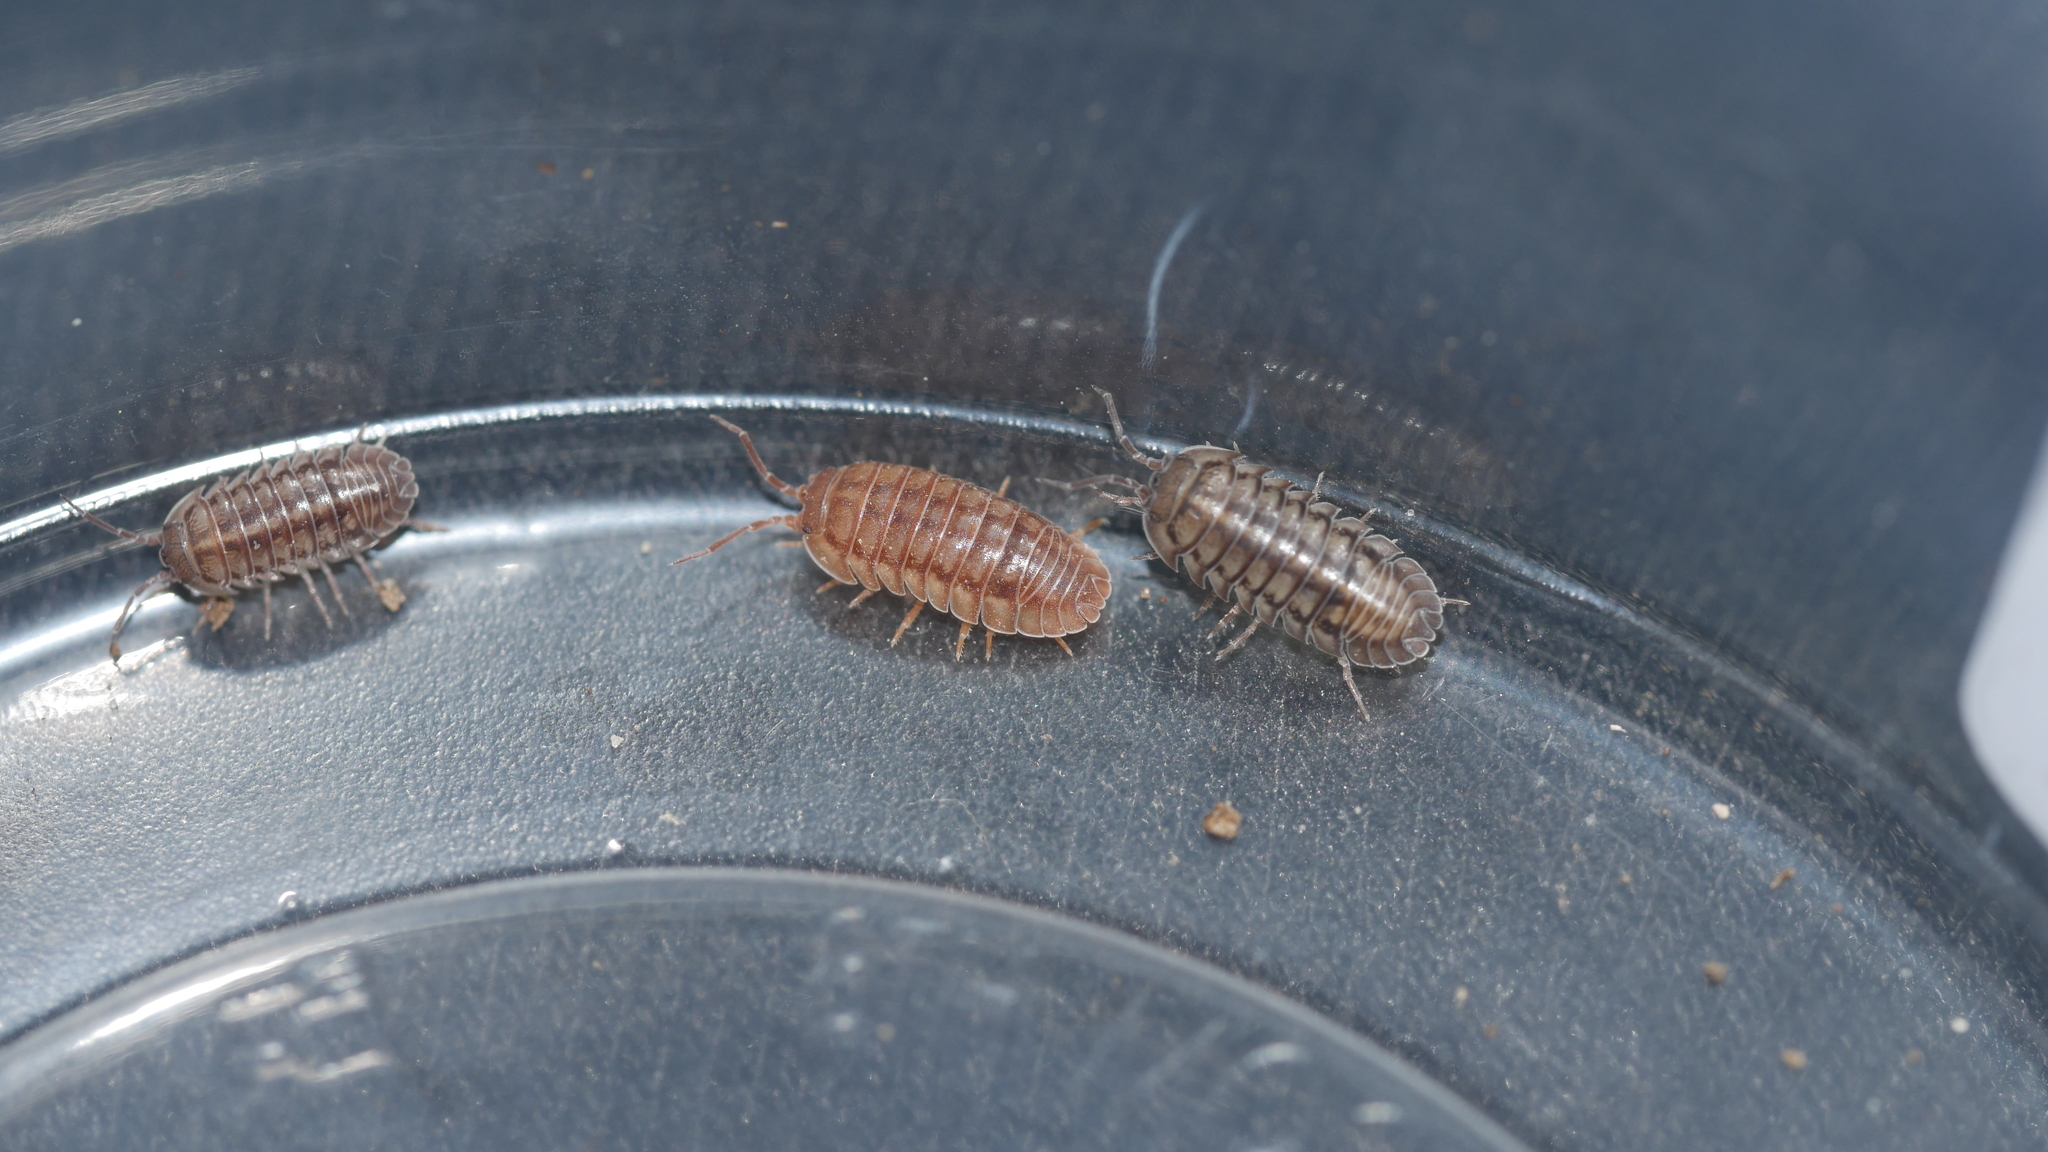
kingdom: Animalia
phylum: Arthropoda
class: Malacostraca
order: Isopoda
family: Armadillidiidae
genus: Armadillidium
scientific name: Armadillidium nasatum
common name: Isopod
